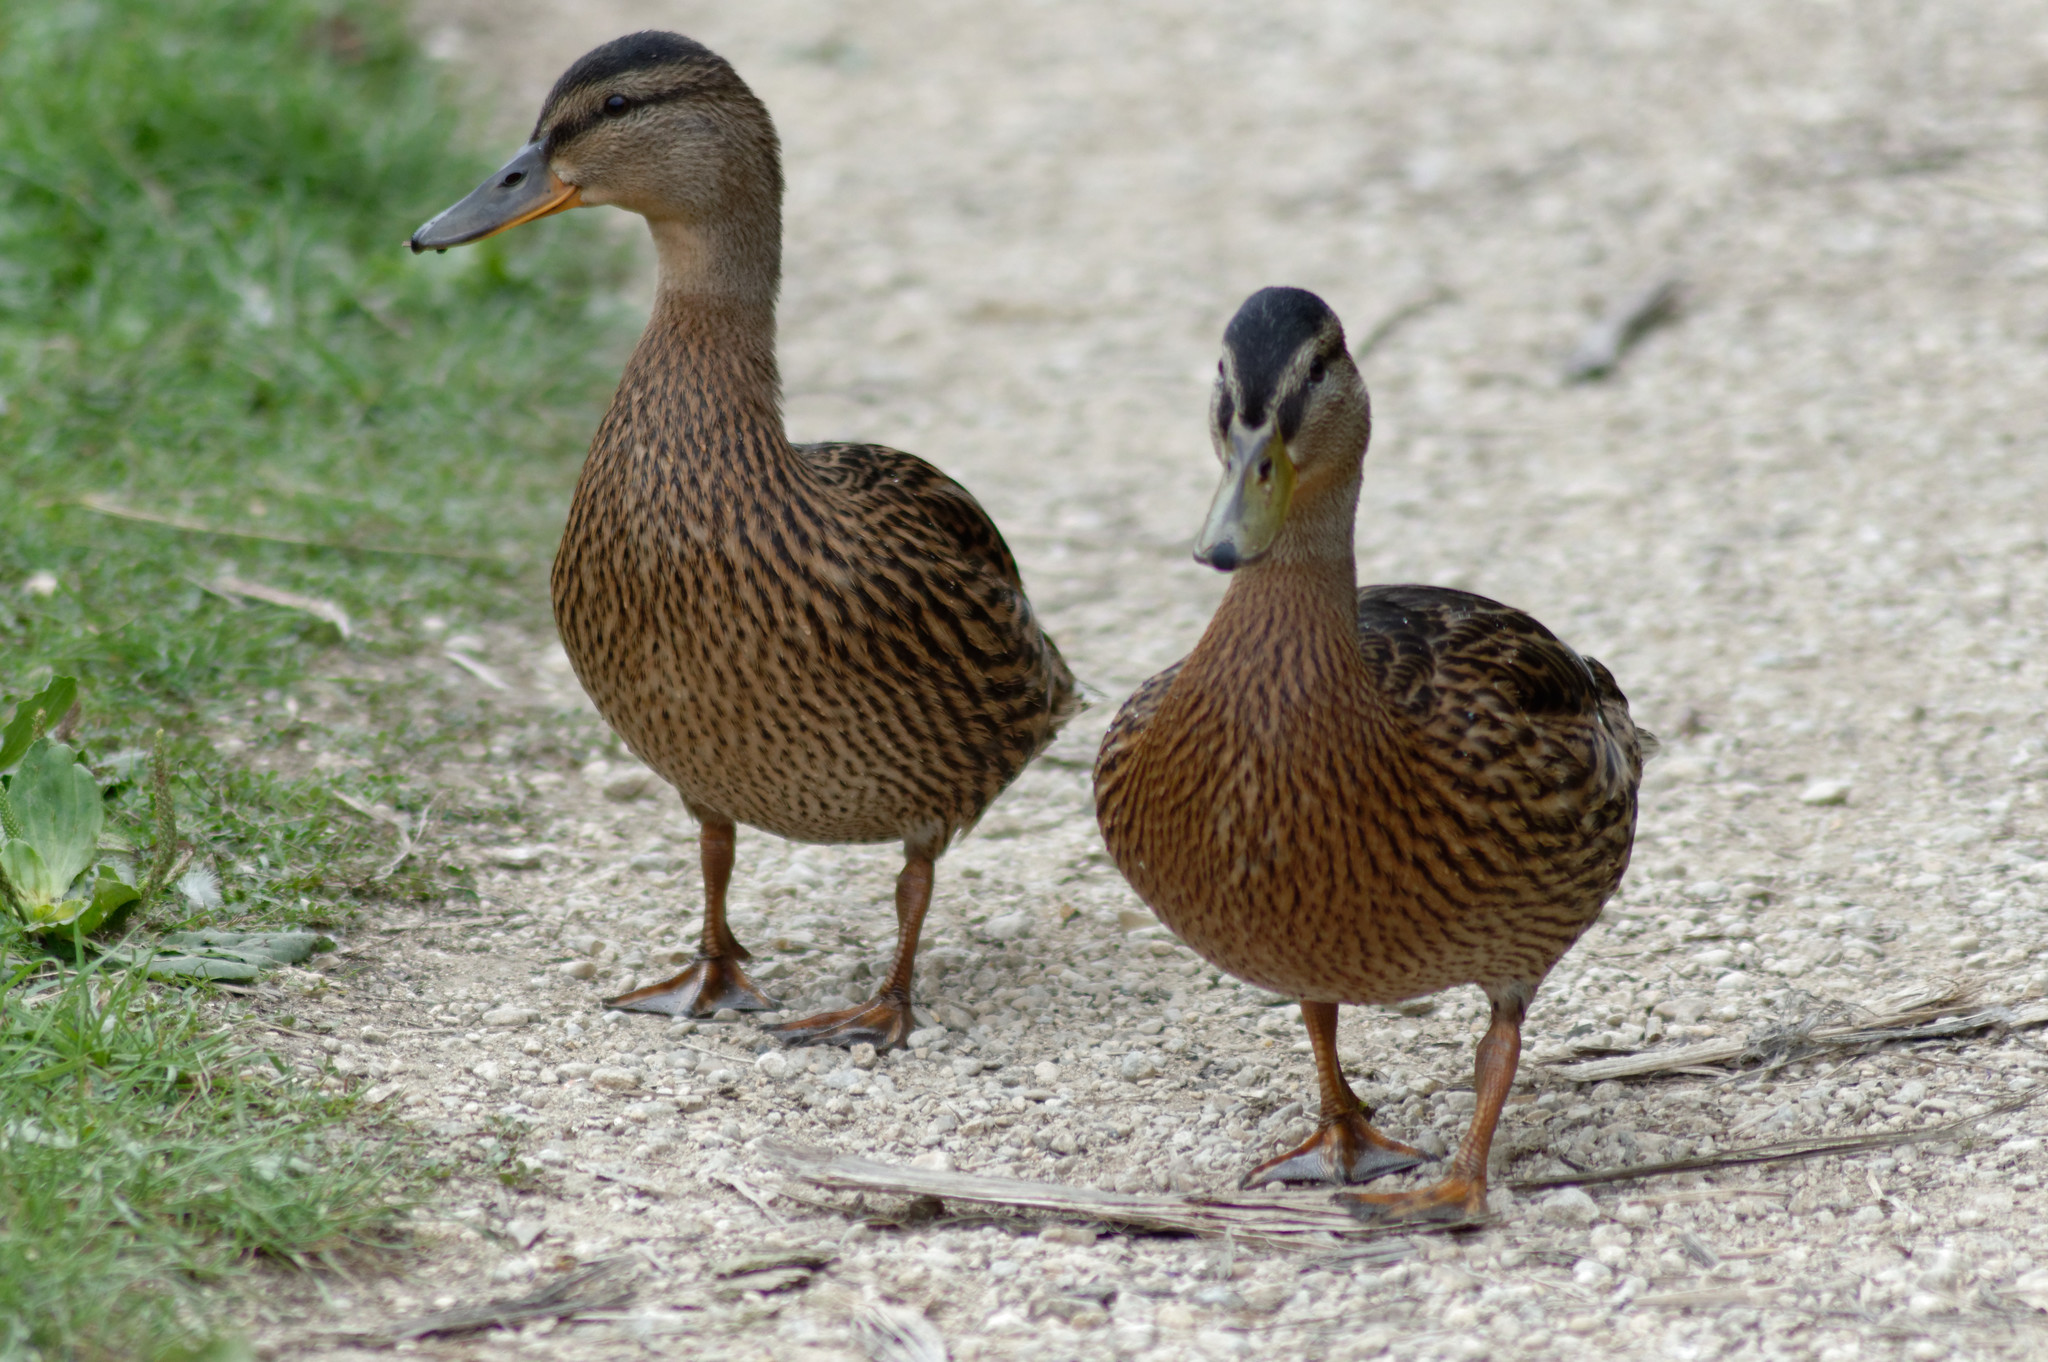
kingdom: Animalia
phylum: Chordata
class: Aves
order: Anseriformes
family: Anatidae
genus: Anas
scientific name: Anas platyrhynchos
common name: Mallard
